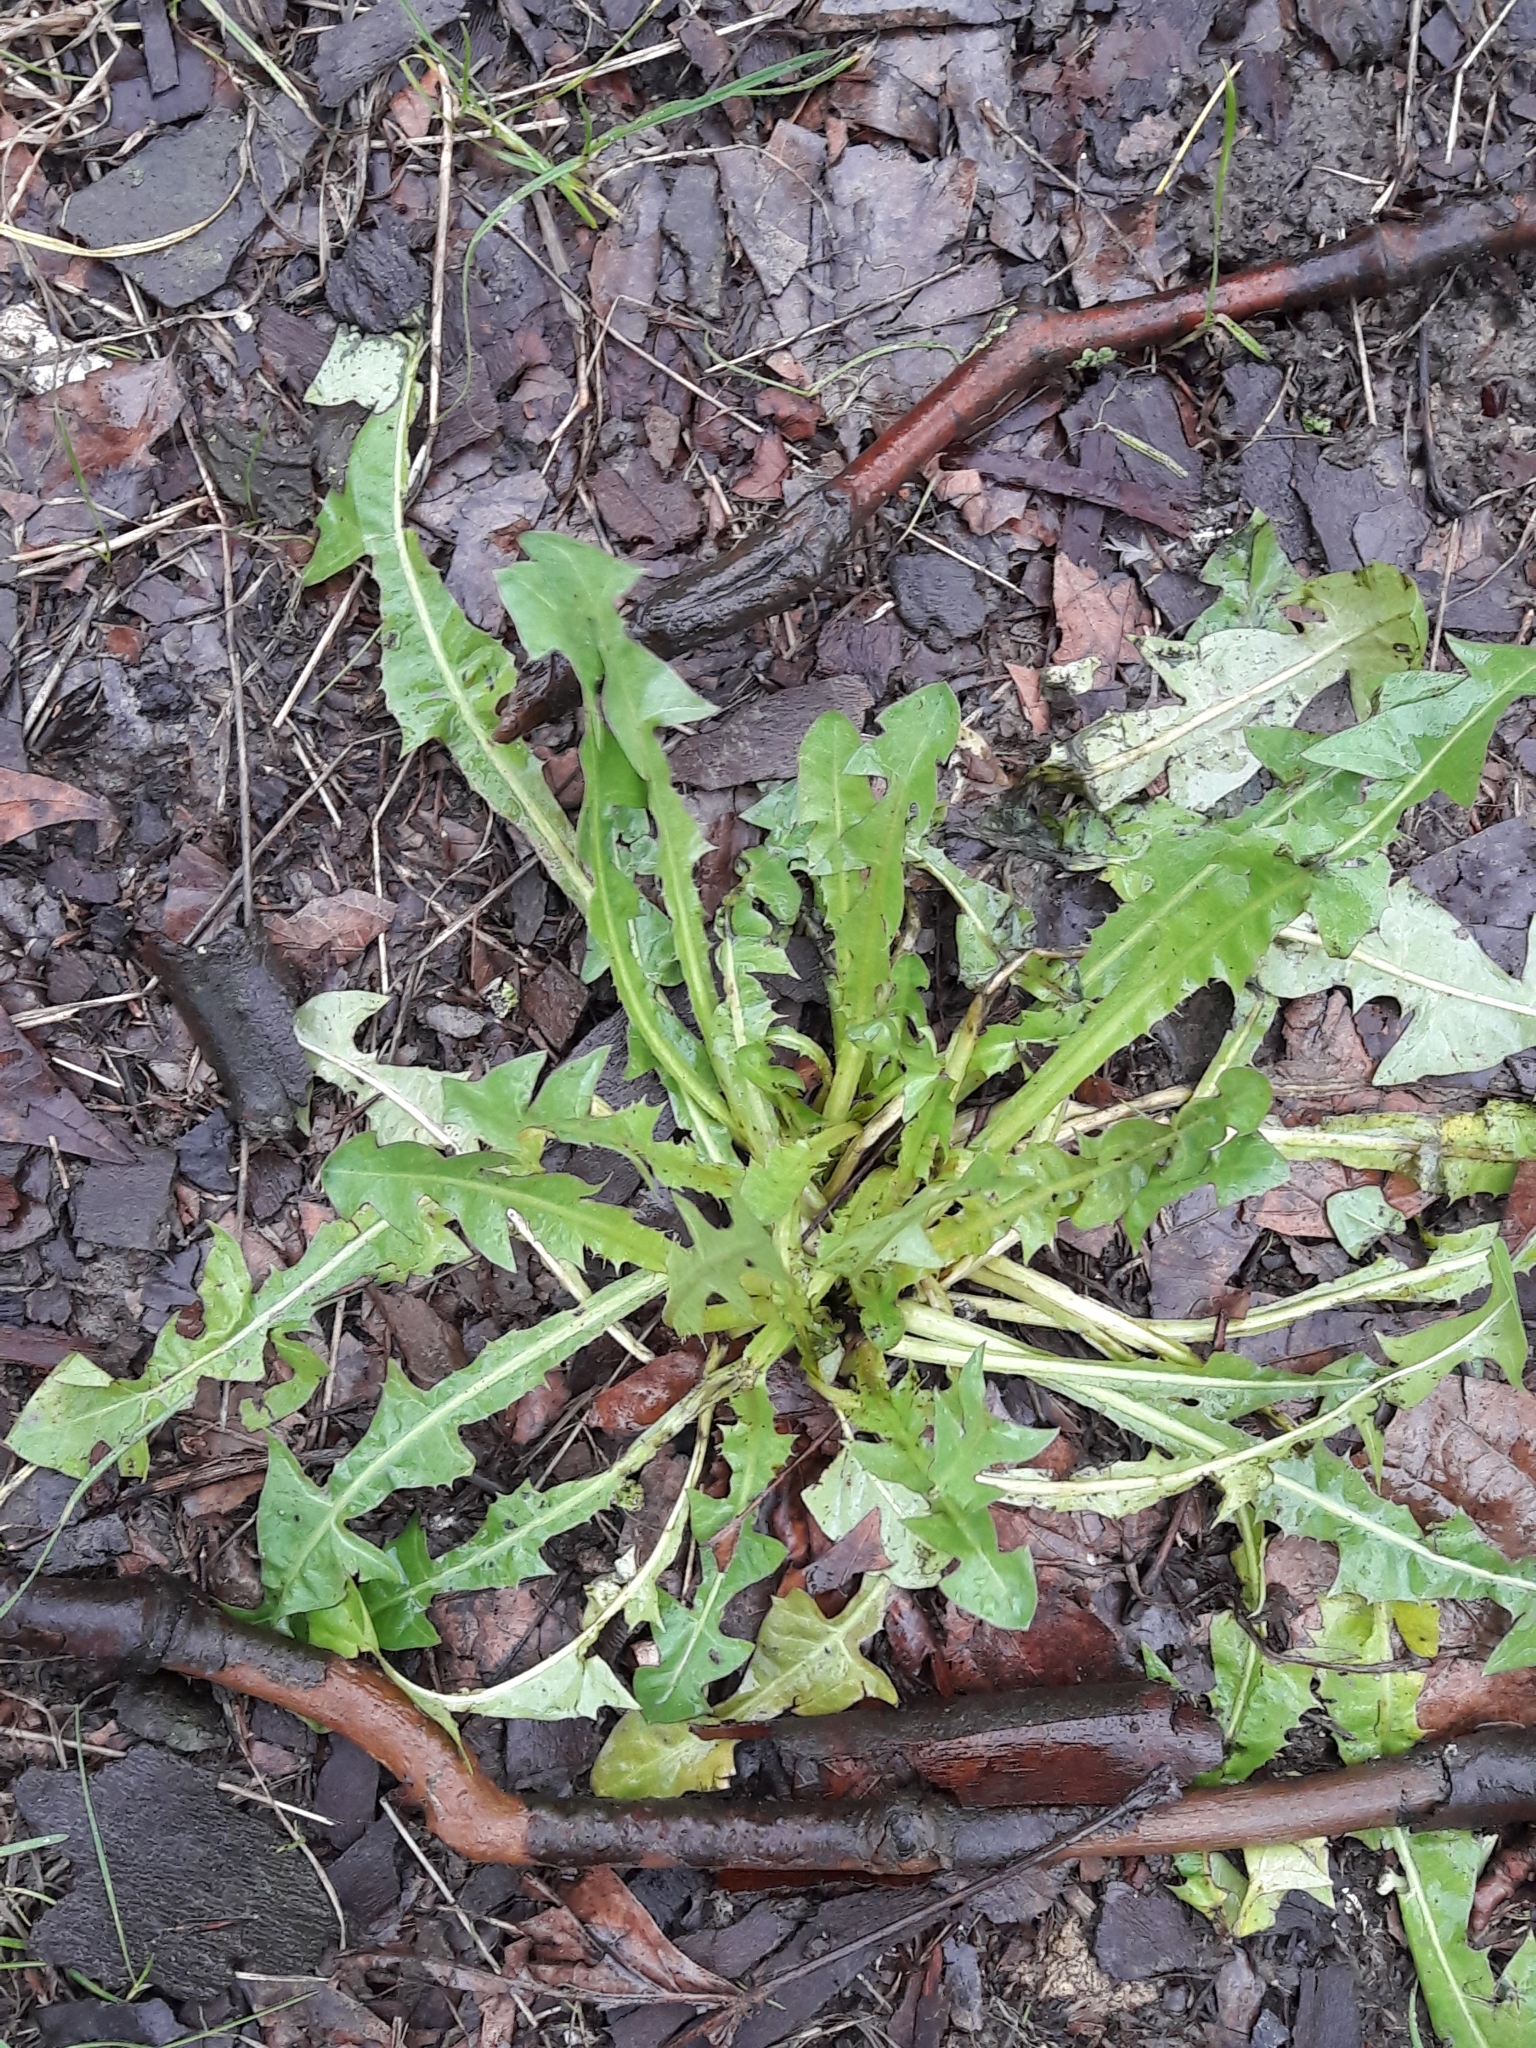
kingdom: Plantae
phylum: Tracheophyta
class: Magnoliopsida
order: Asterales
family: Asteraceae
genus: Taraxacum
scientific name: Taraxacum officinale
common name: Common dandelion
